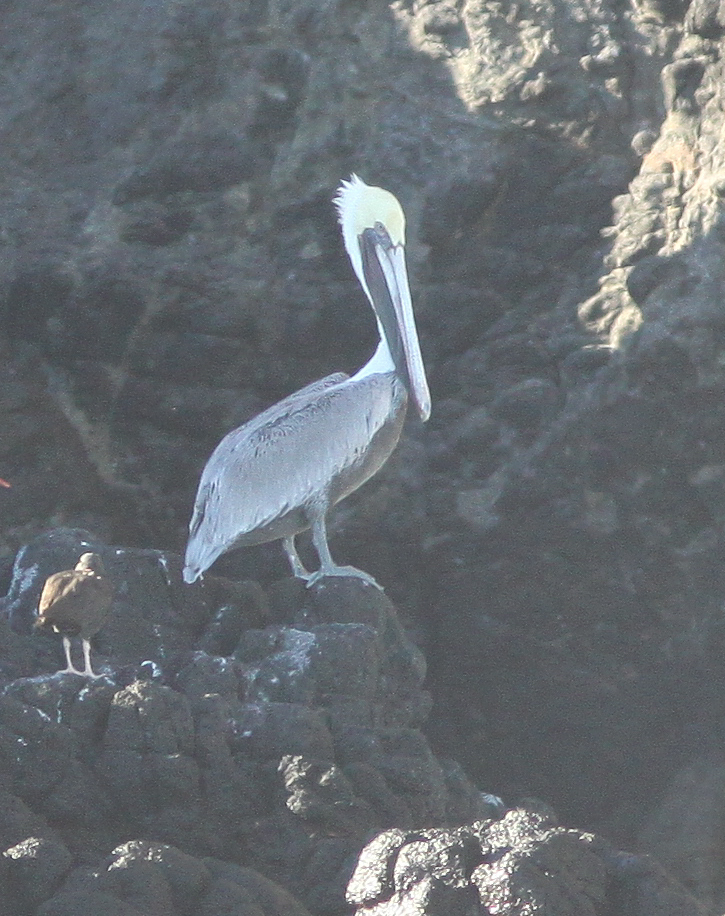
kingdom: Animalia
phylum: Chordata
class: Aves
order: Pelecaniformes
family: Pelecanidae
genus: Pelecanus
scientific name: Pelecanus occidentalis
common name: Brown pelican
